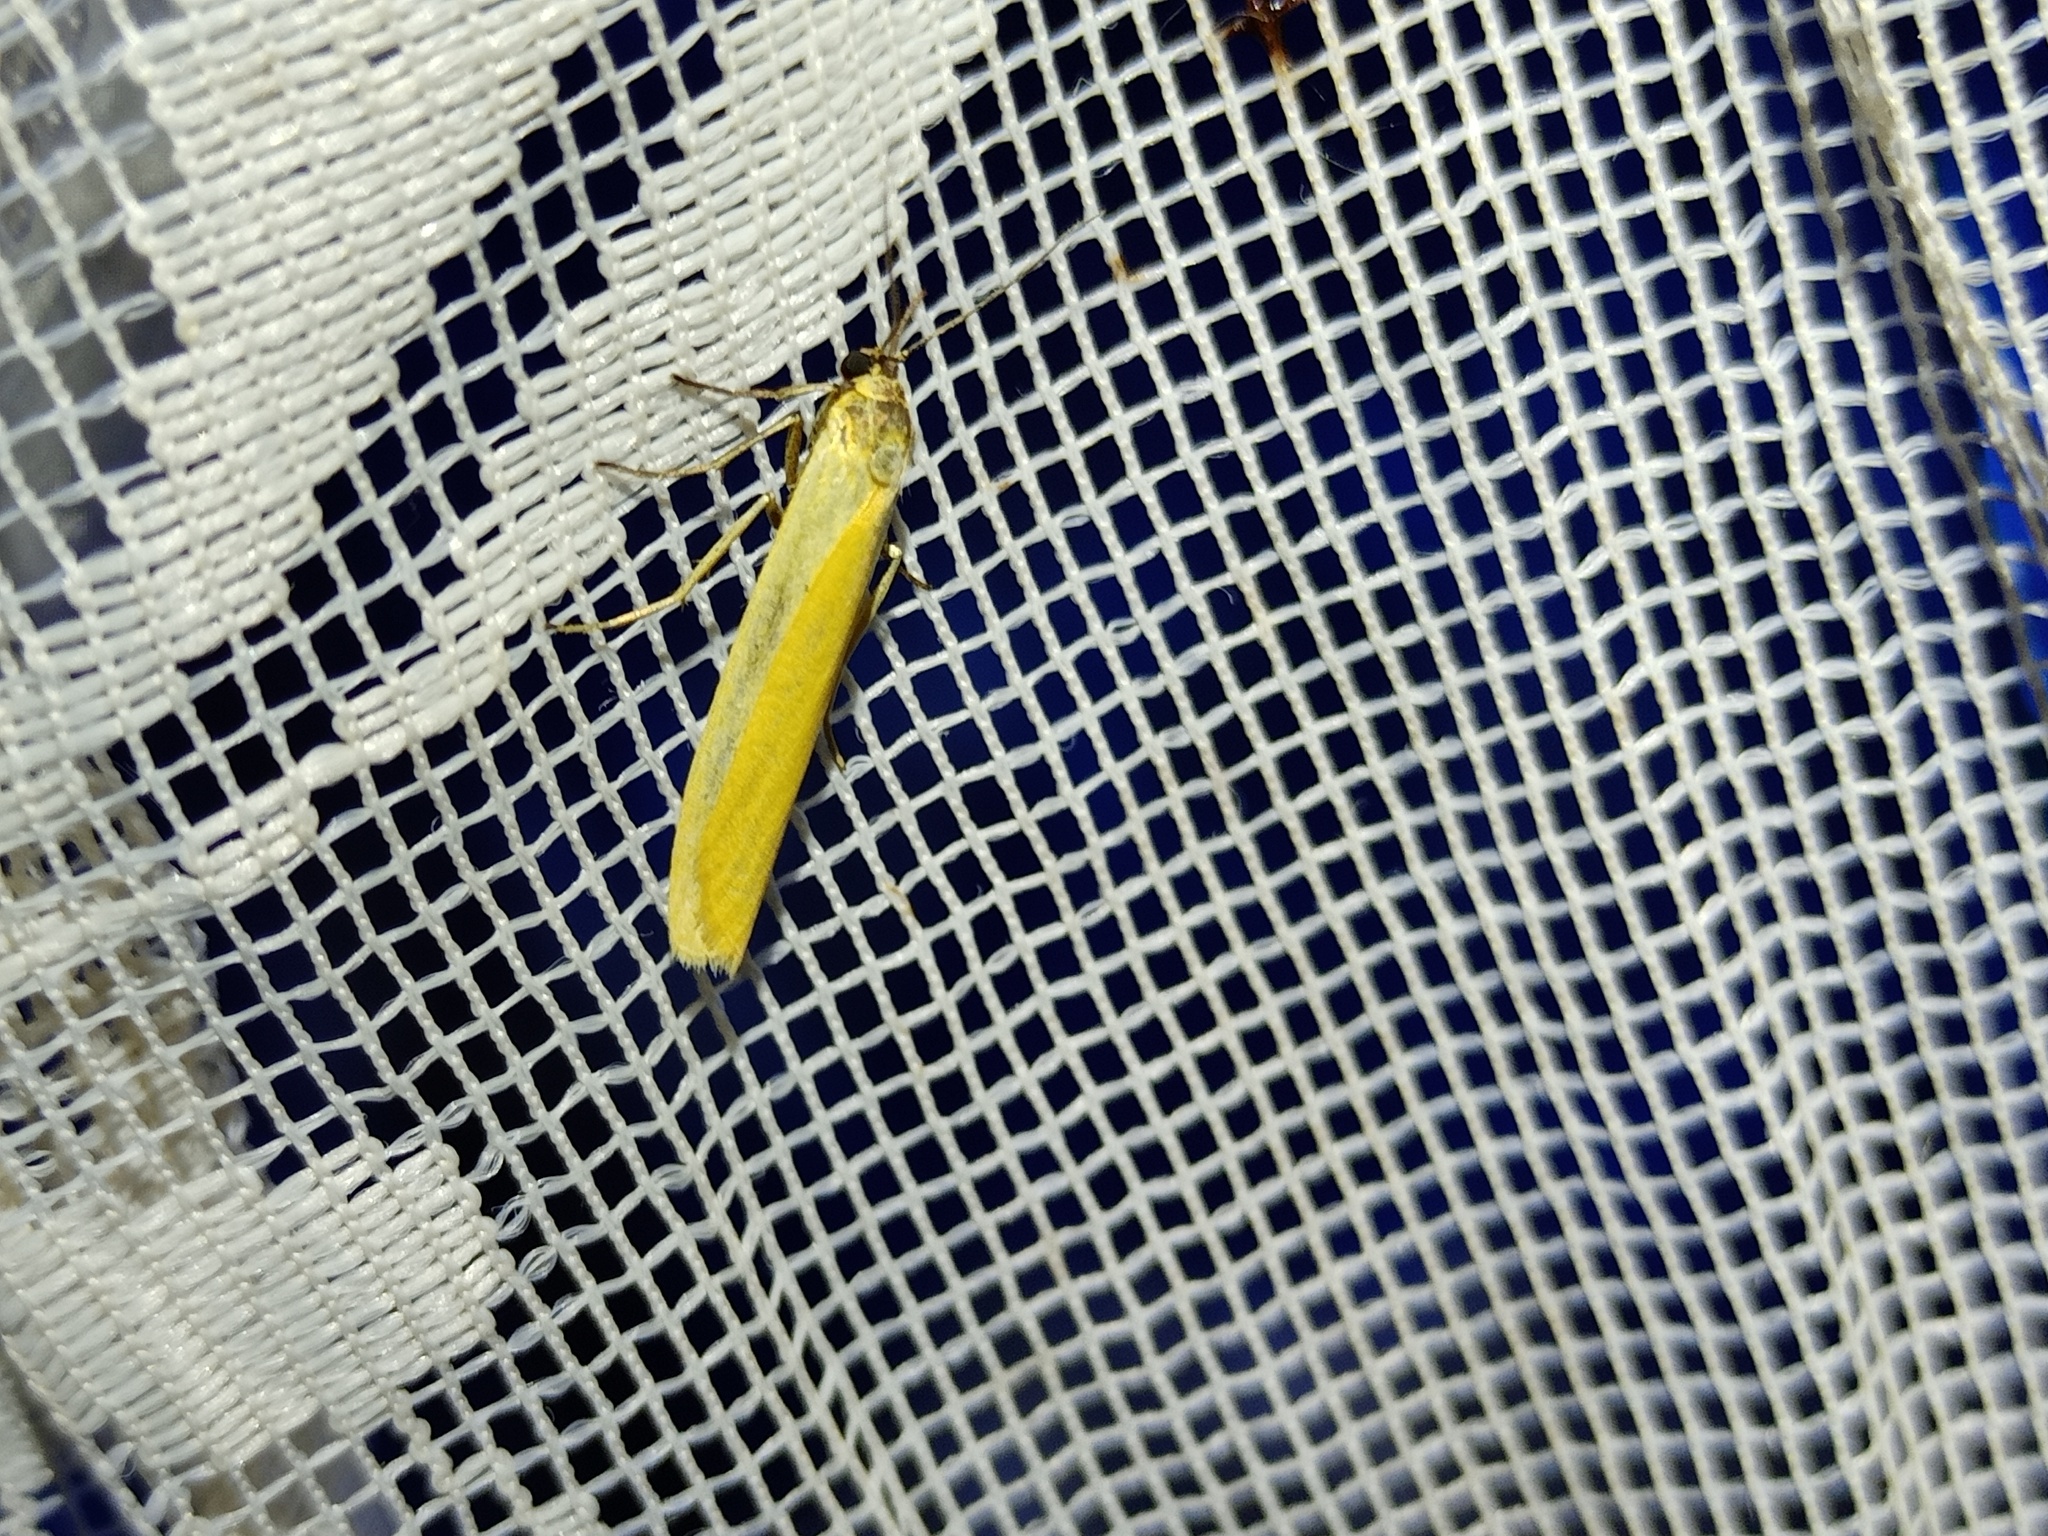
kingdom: Animalia
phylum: Arthropoda
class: Insecta
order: Lepidoptera
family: Erebidae
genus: Indalia
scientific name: Indalia lutarella
